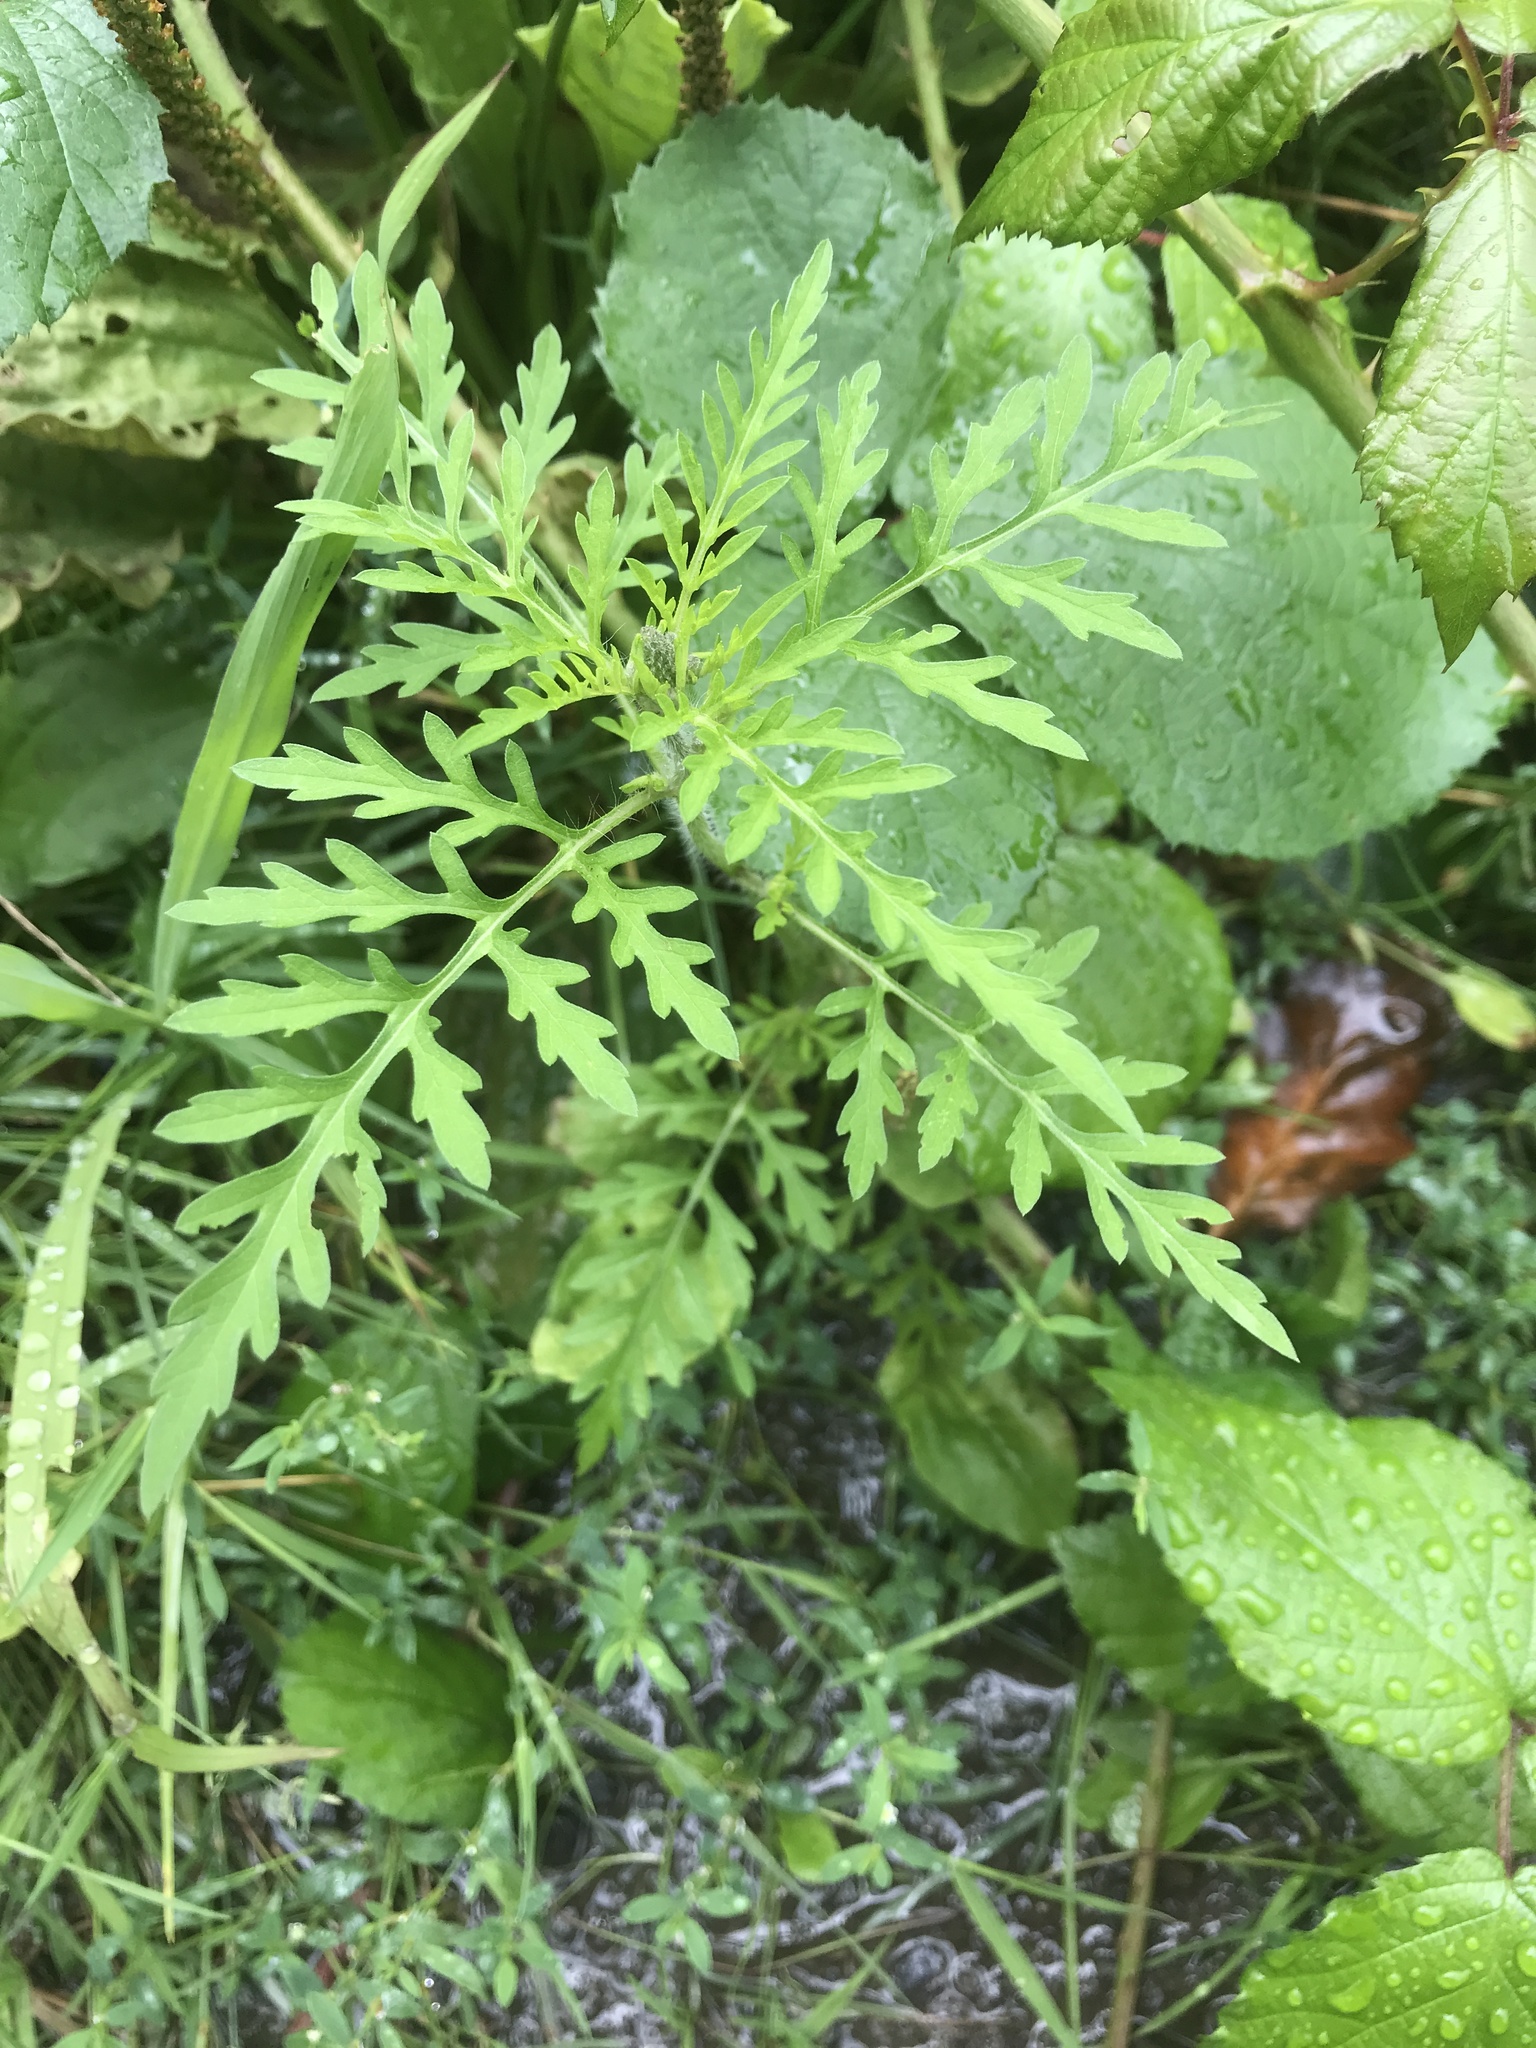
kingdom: Plantae
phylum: Tracheophyta
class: Magnoliopsida
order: Asterales
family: Asteraceae
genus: Ambrosia
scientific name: Ambrosia artemisiifolia
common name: Annual ragweed
